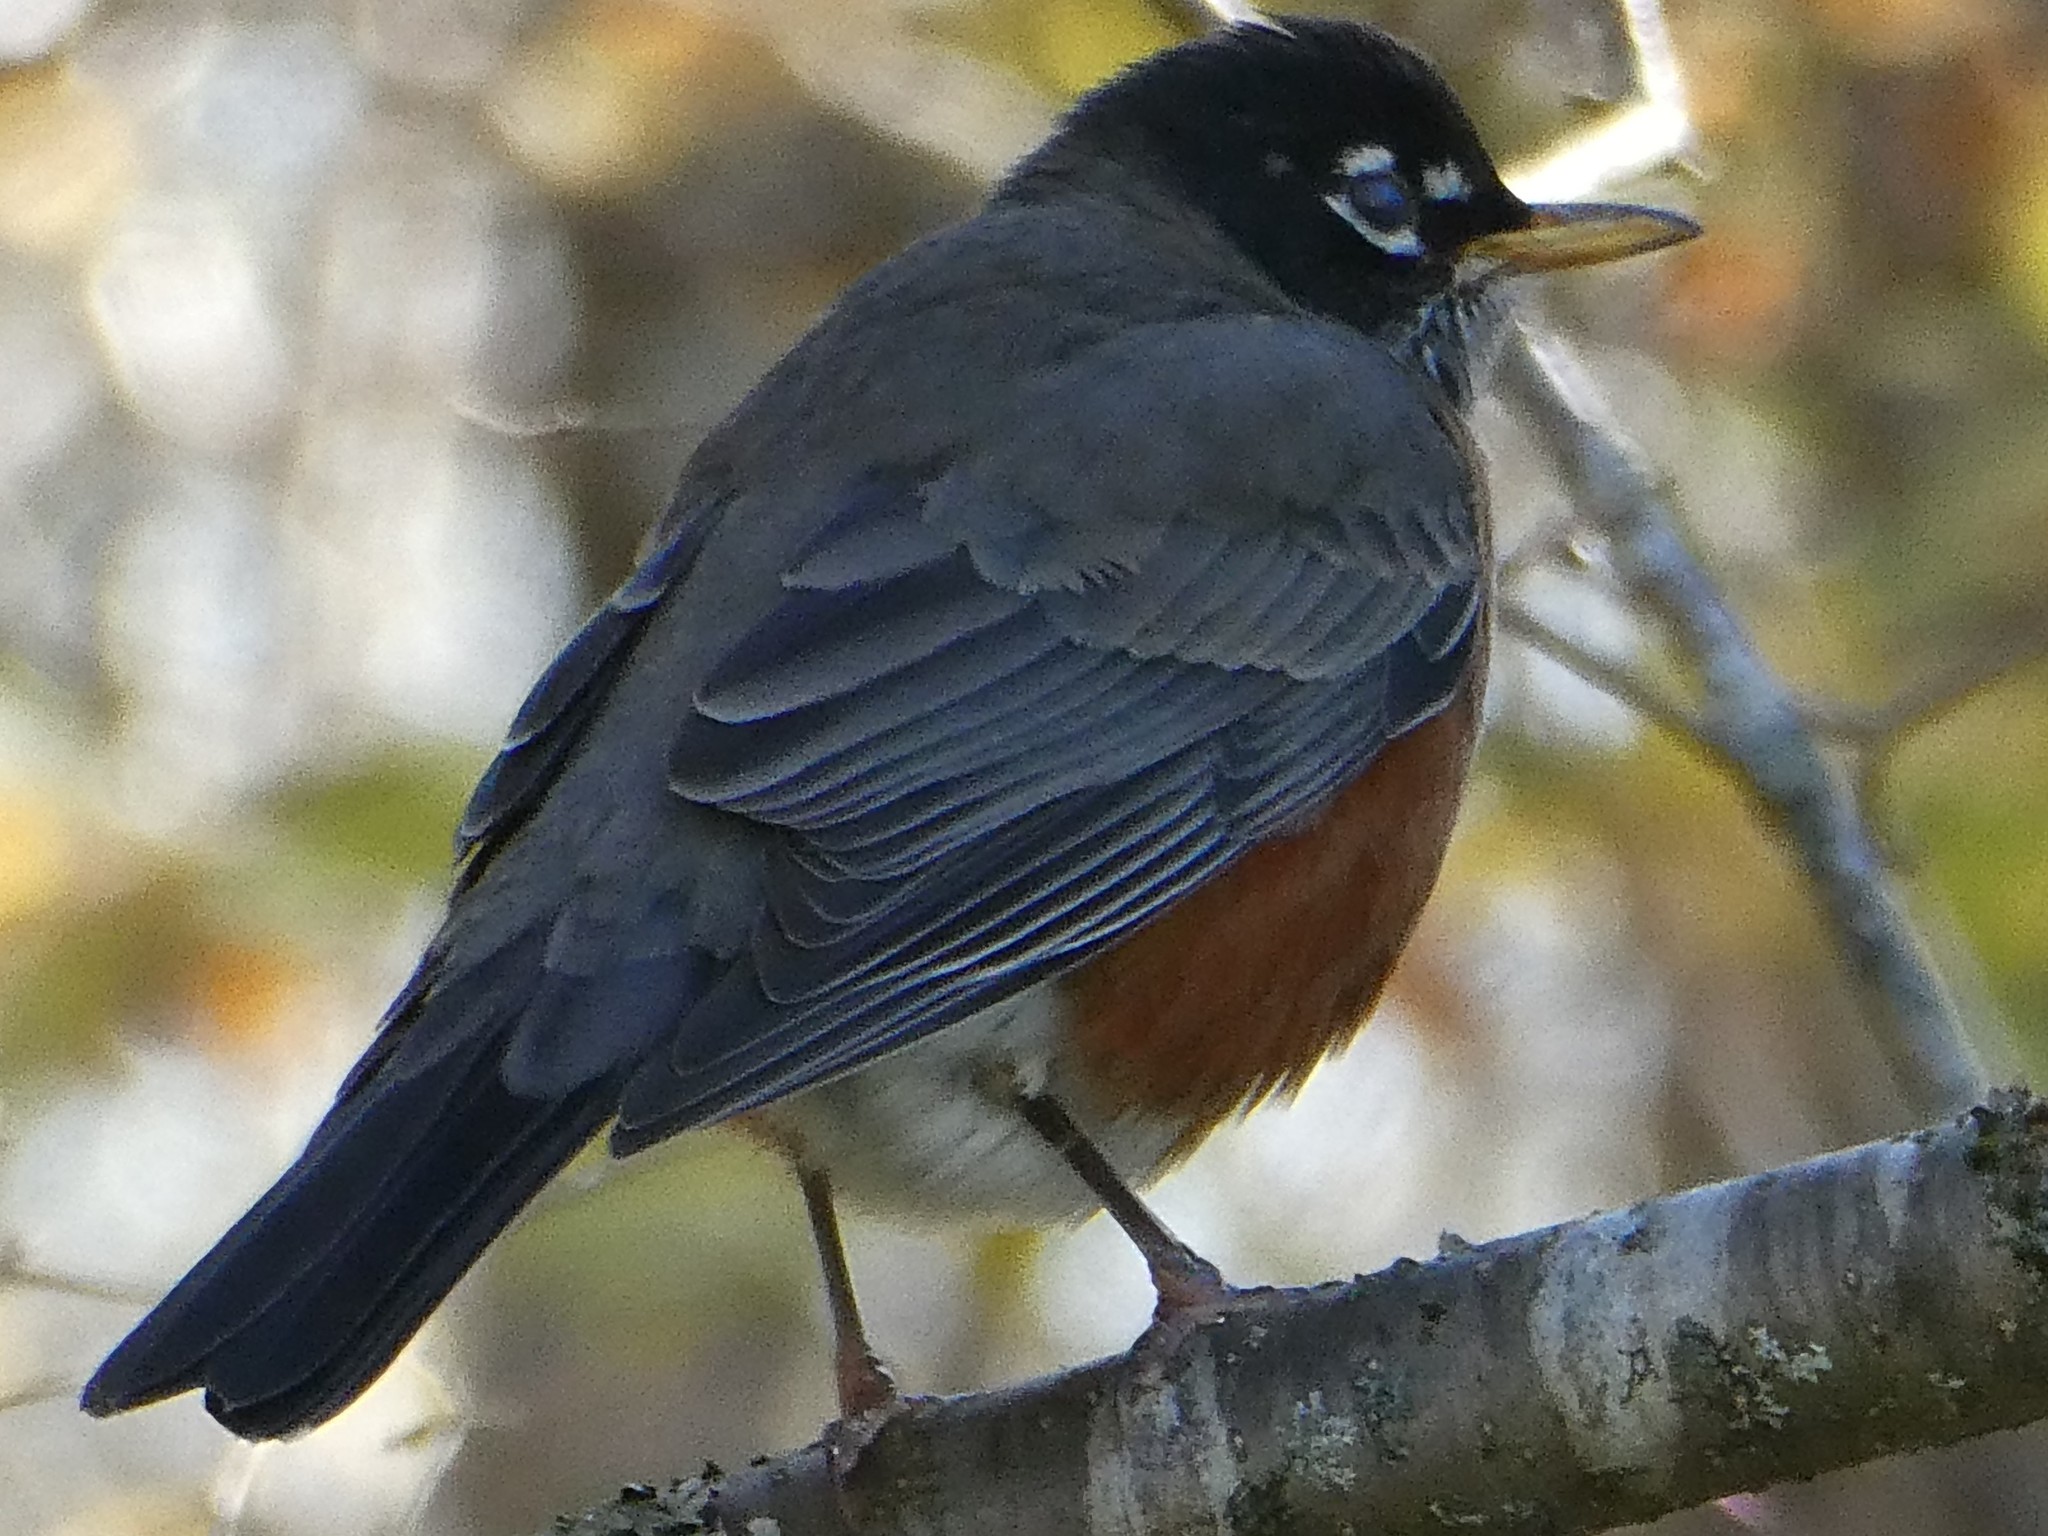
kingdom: Animalia
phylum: Chordata
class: Aves
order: Passeriformes
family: Turdidae
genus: Turdus
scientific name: Turdus migratorius
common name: American robin
